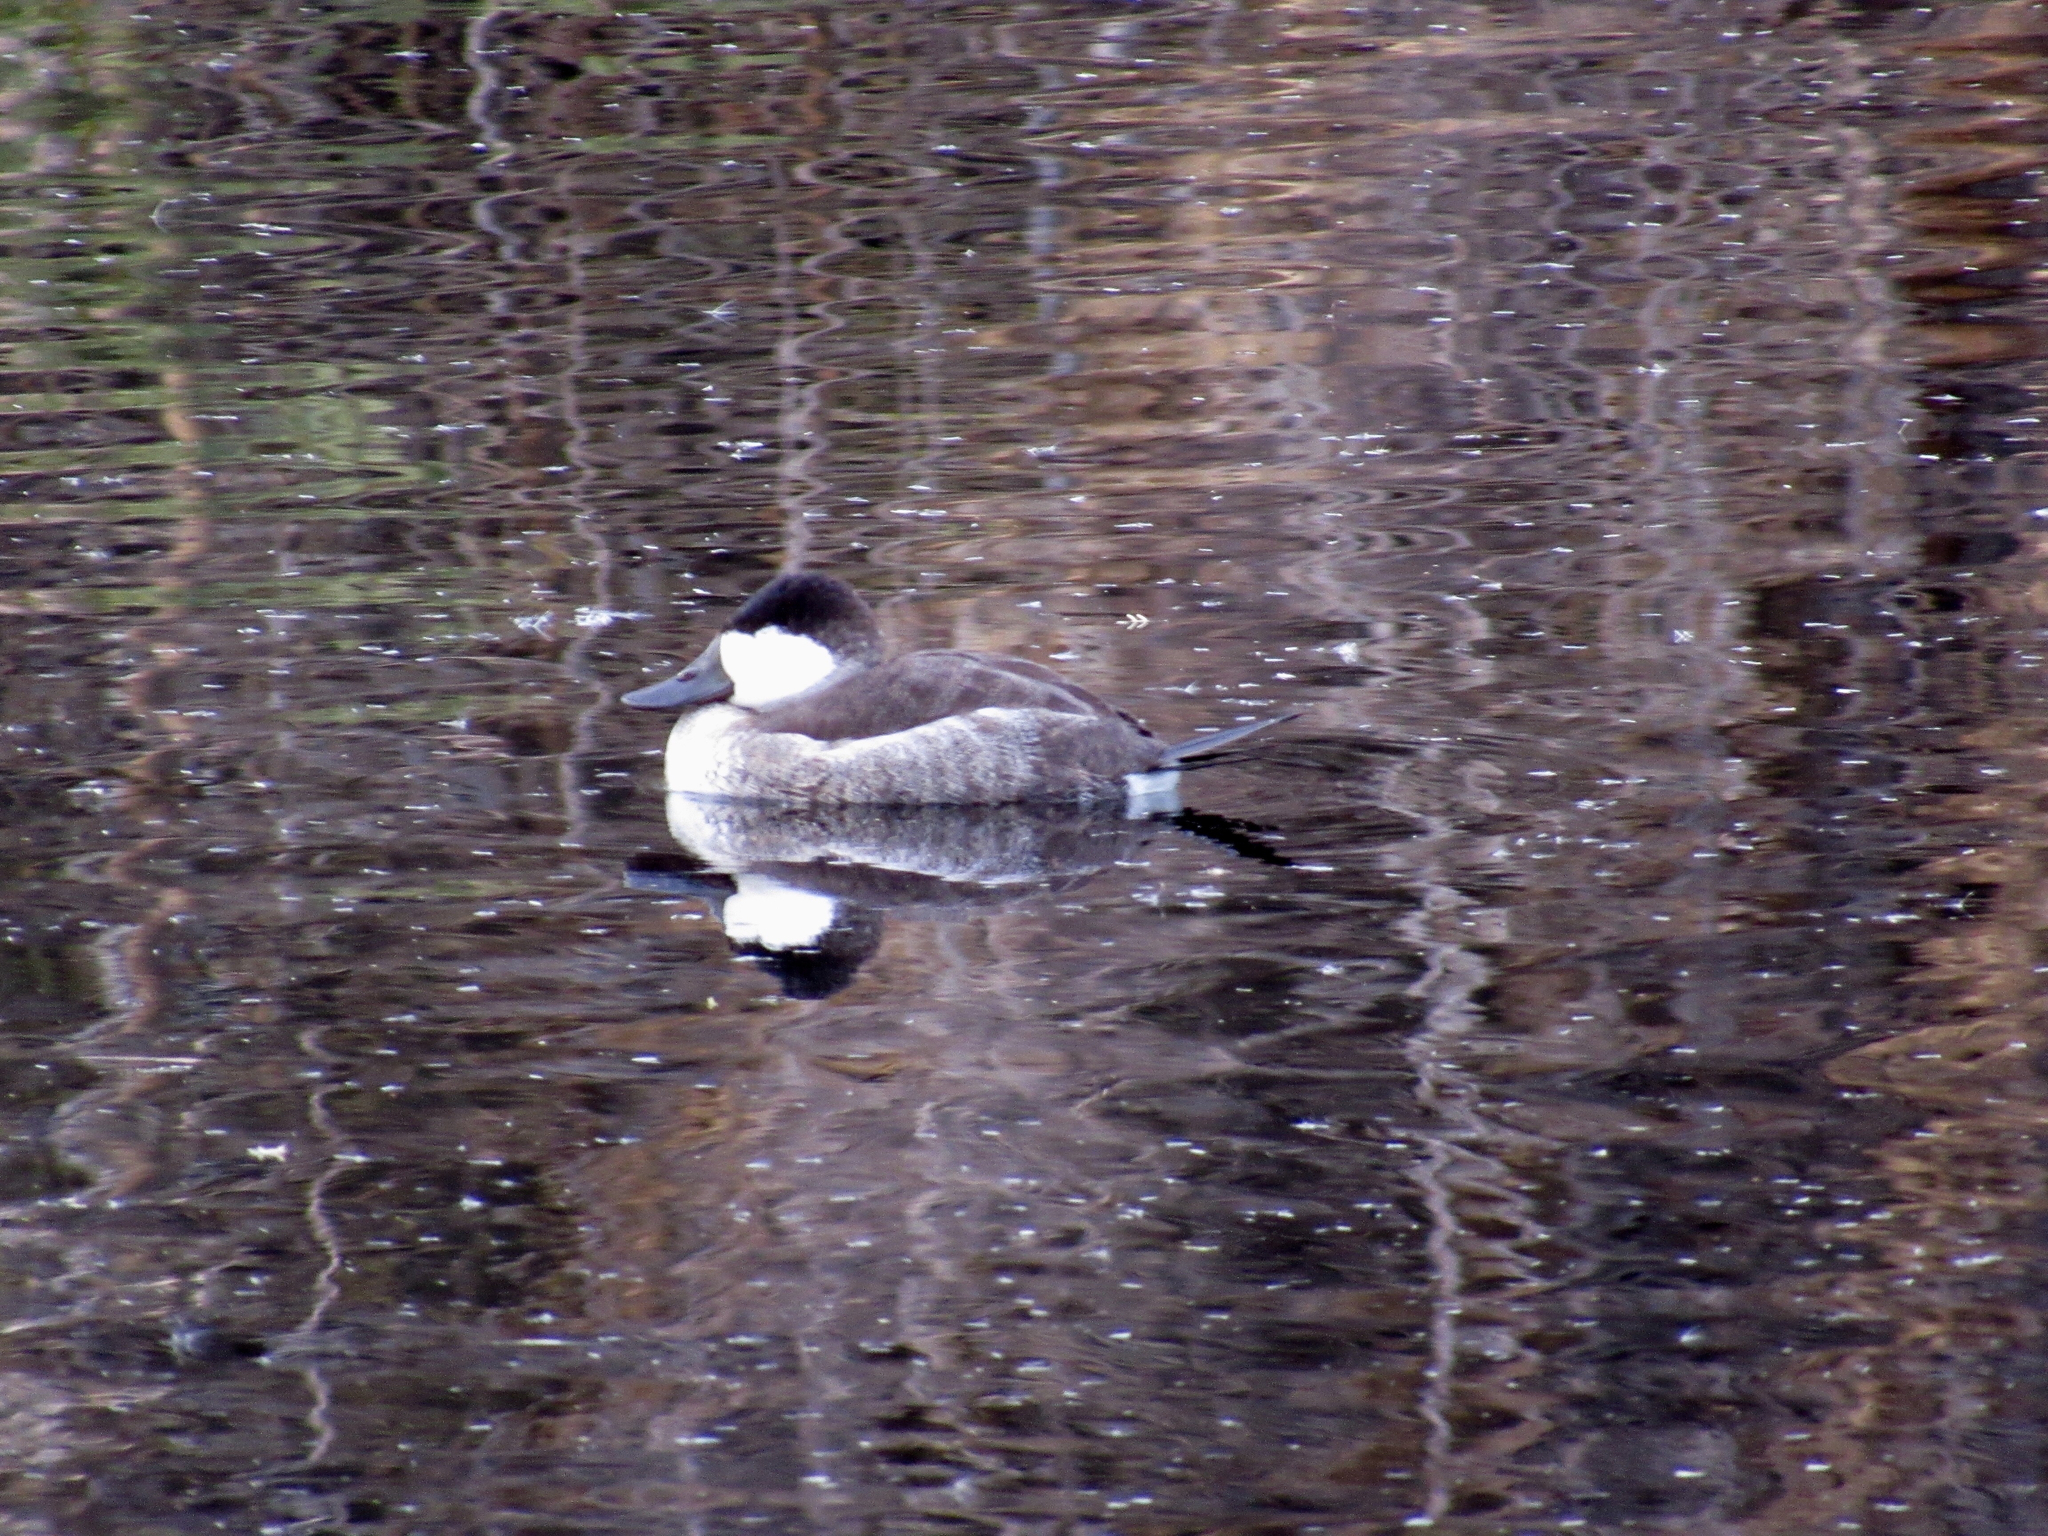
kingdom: Animalia
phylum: Chordata
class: Aves
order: Anseriformes
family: Anatidae
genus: Oxyura
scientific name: Oxyura jamaicensis
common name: Ruddy duck
